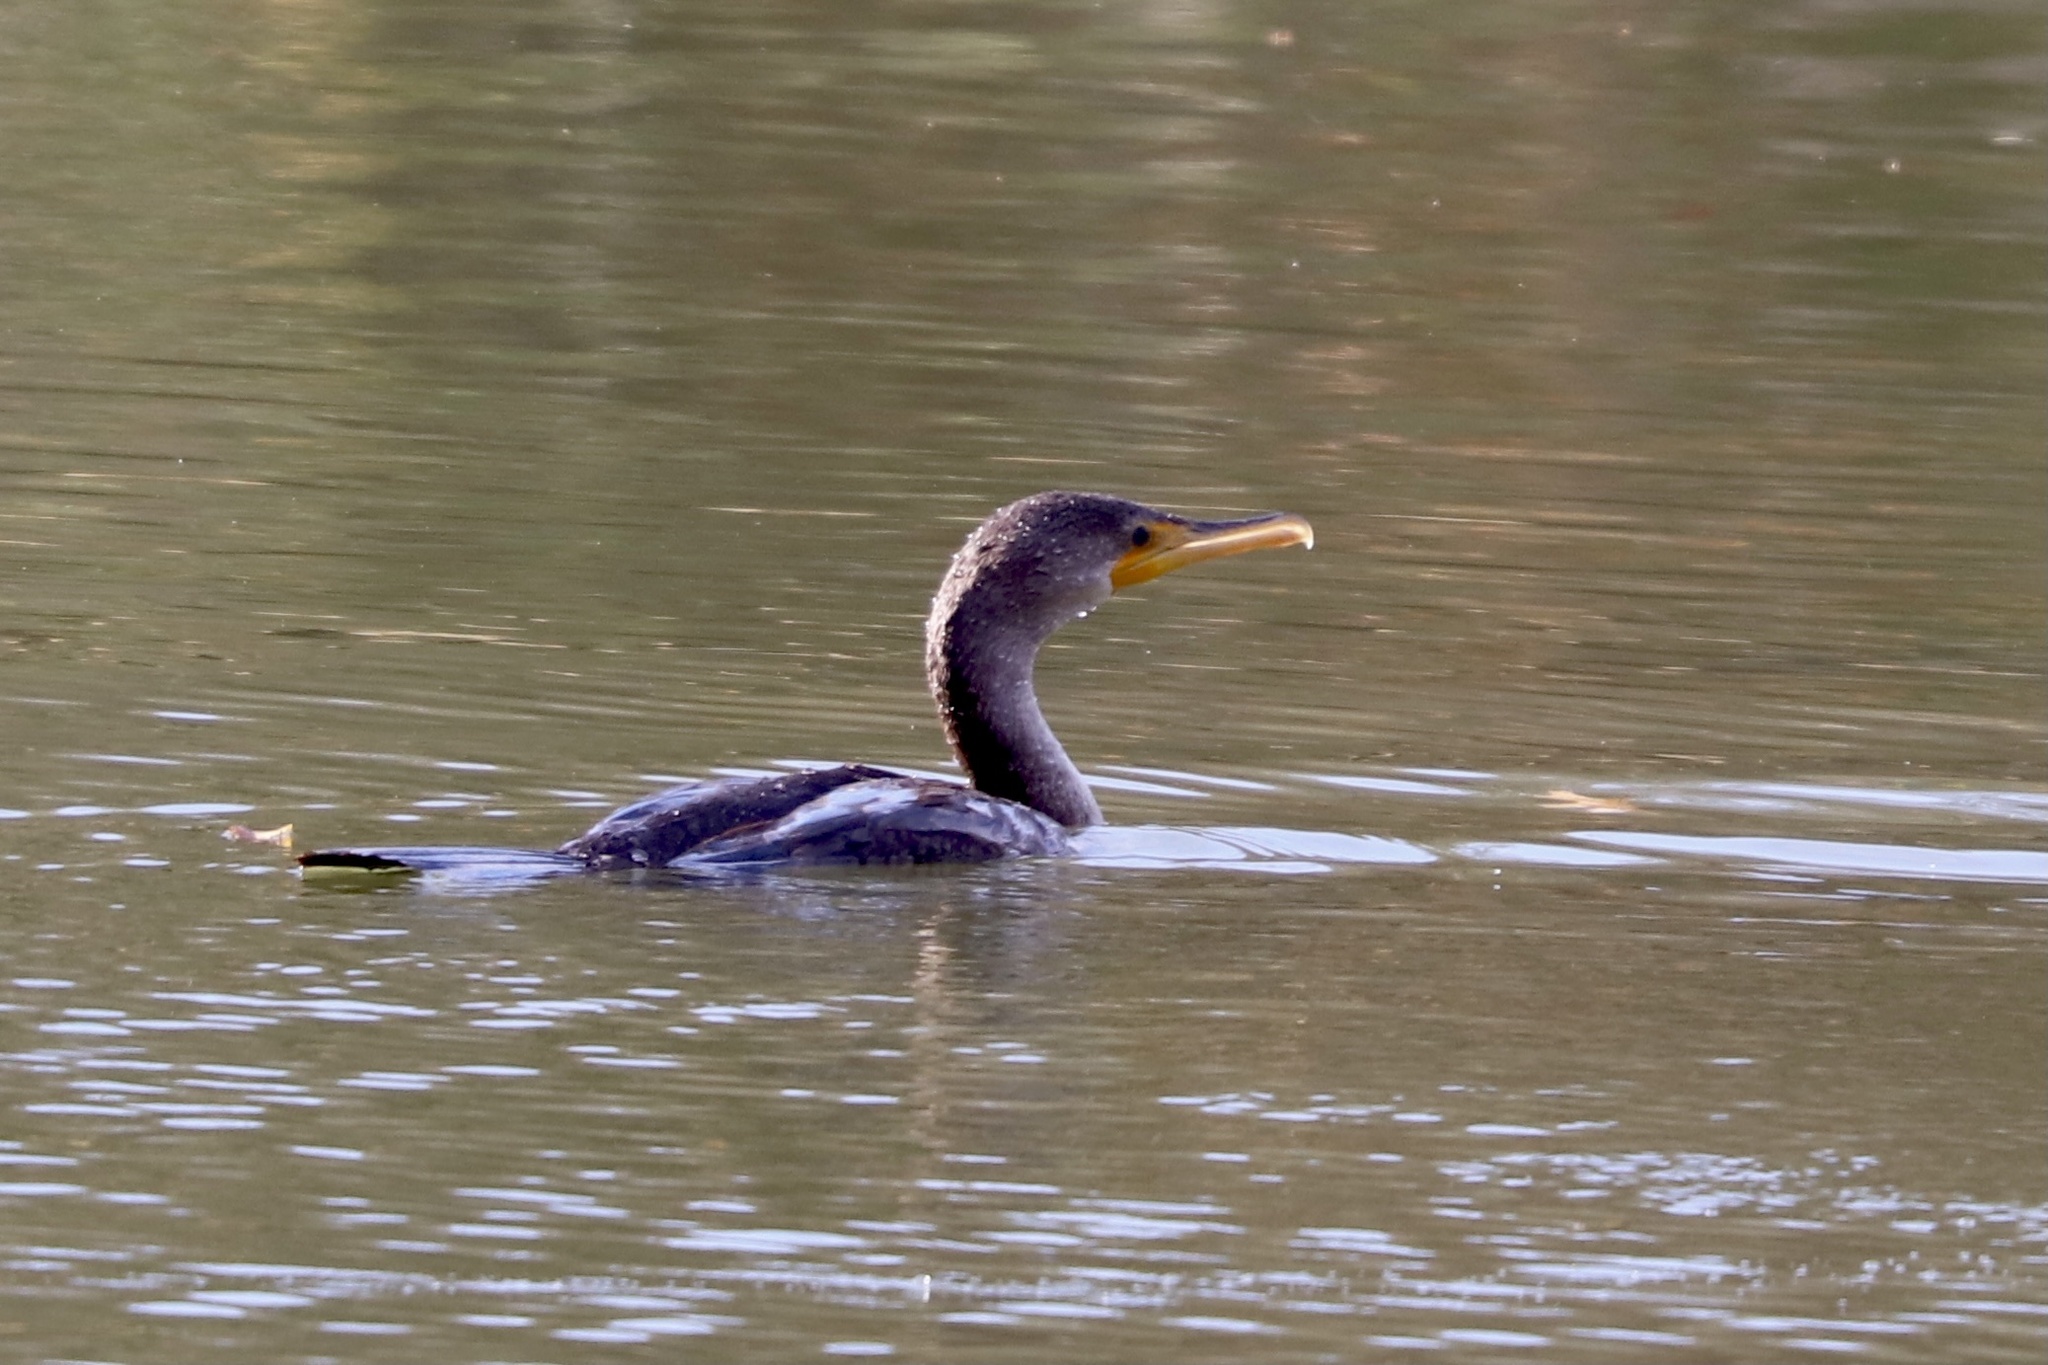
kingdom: Animalia
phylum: Chordata
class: Aves
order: Suliformes
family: Phalacrocoracidae
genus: Phalacrocorax
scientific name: Phalacrocorax auritus
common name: Double-crested cormorant
